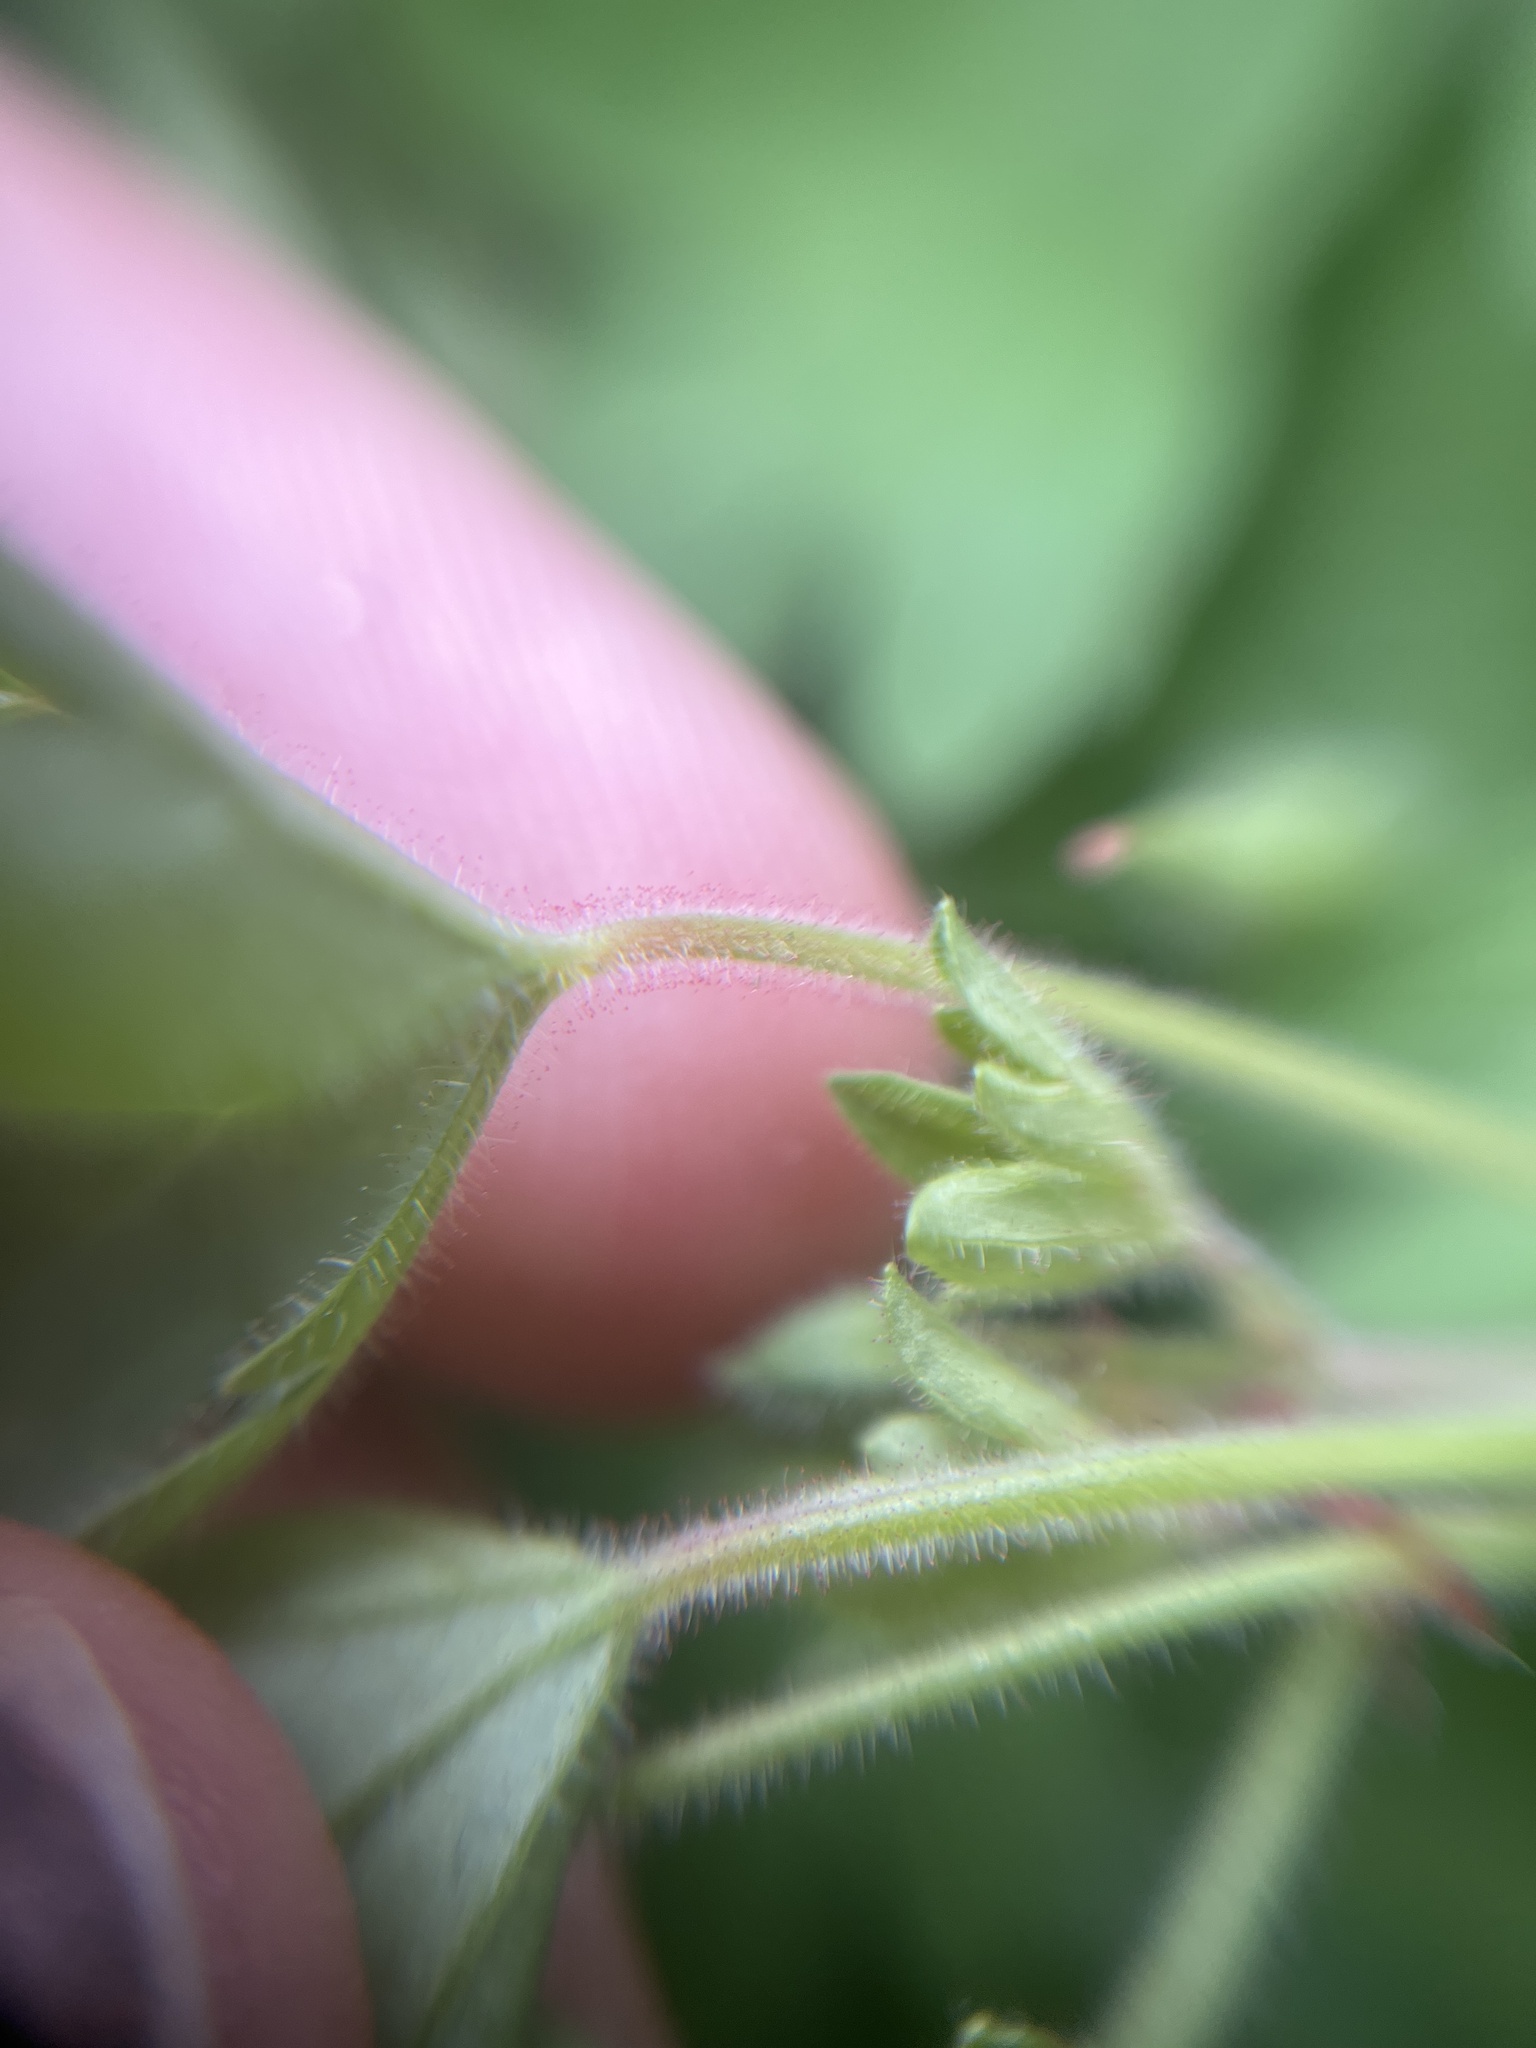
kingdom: Plantae
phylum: Tracheophyta
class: Magnoliopsida
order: Geraniales
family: Geraniaceae
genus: Geranium
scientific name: Geranium rotundifolium
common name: Round-leaved crane's-bill
